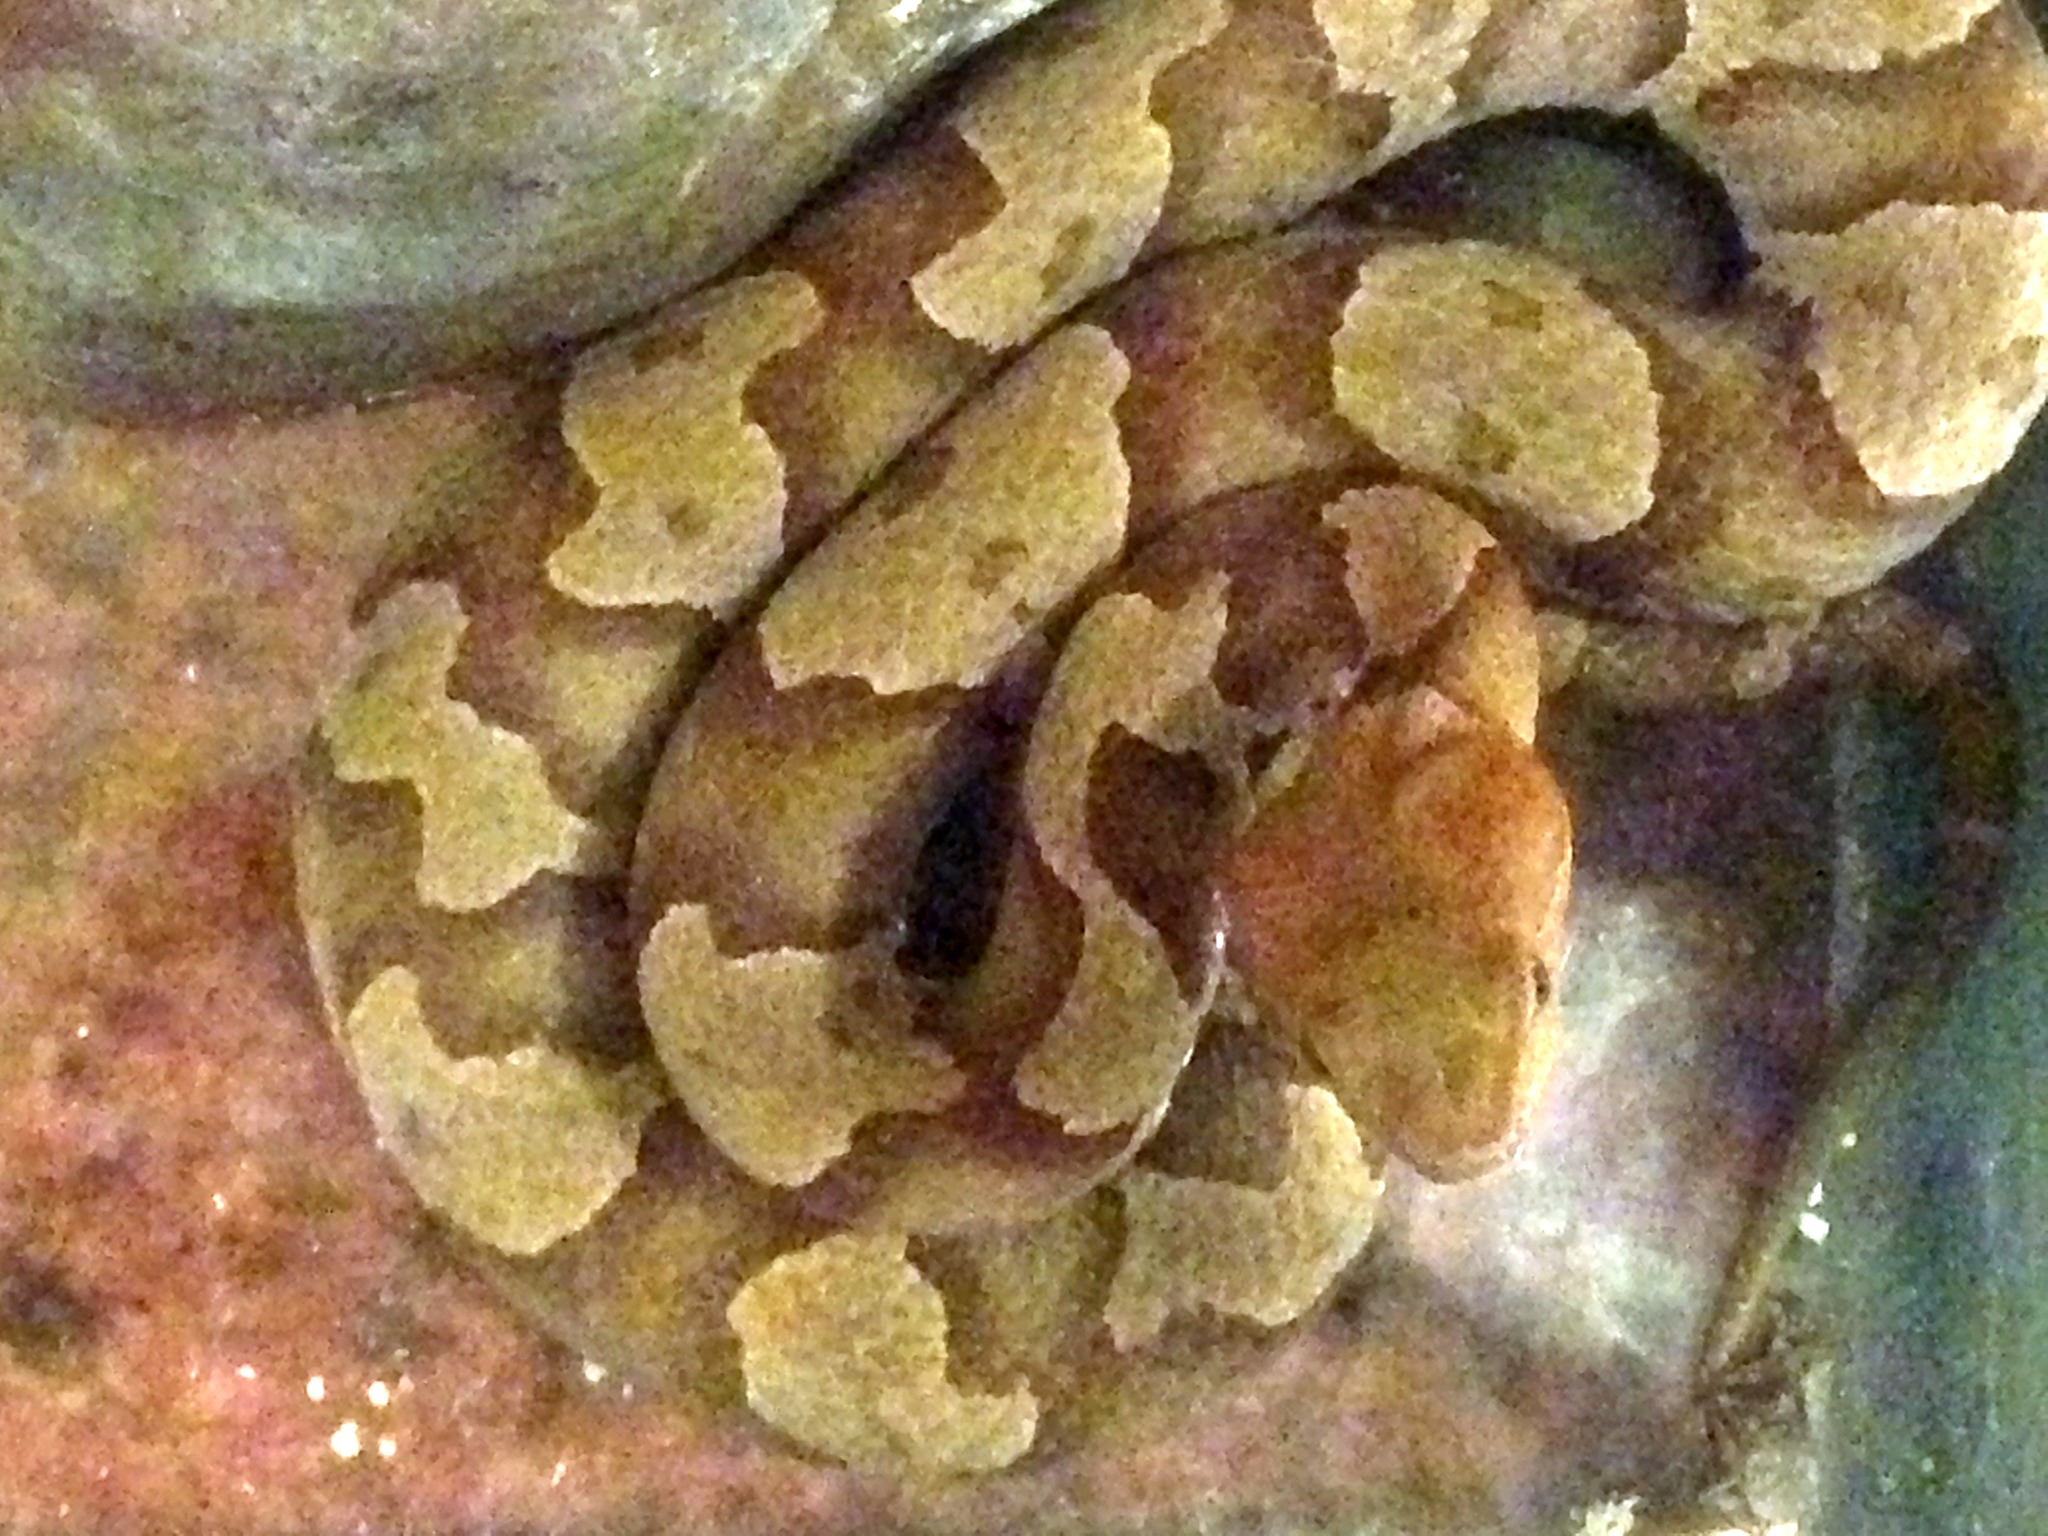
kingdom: Animalia
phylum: Chordata
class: Squamata
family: Viperidae
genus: Agkistrodon
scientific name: Agkistrodon contortrix
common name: Northern copperhead
